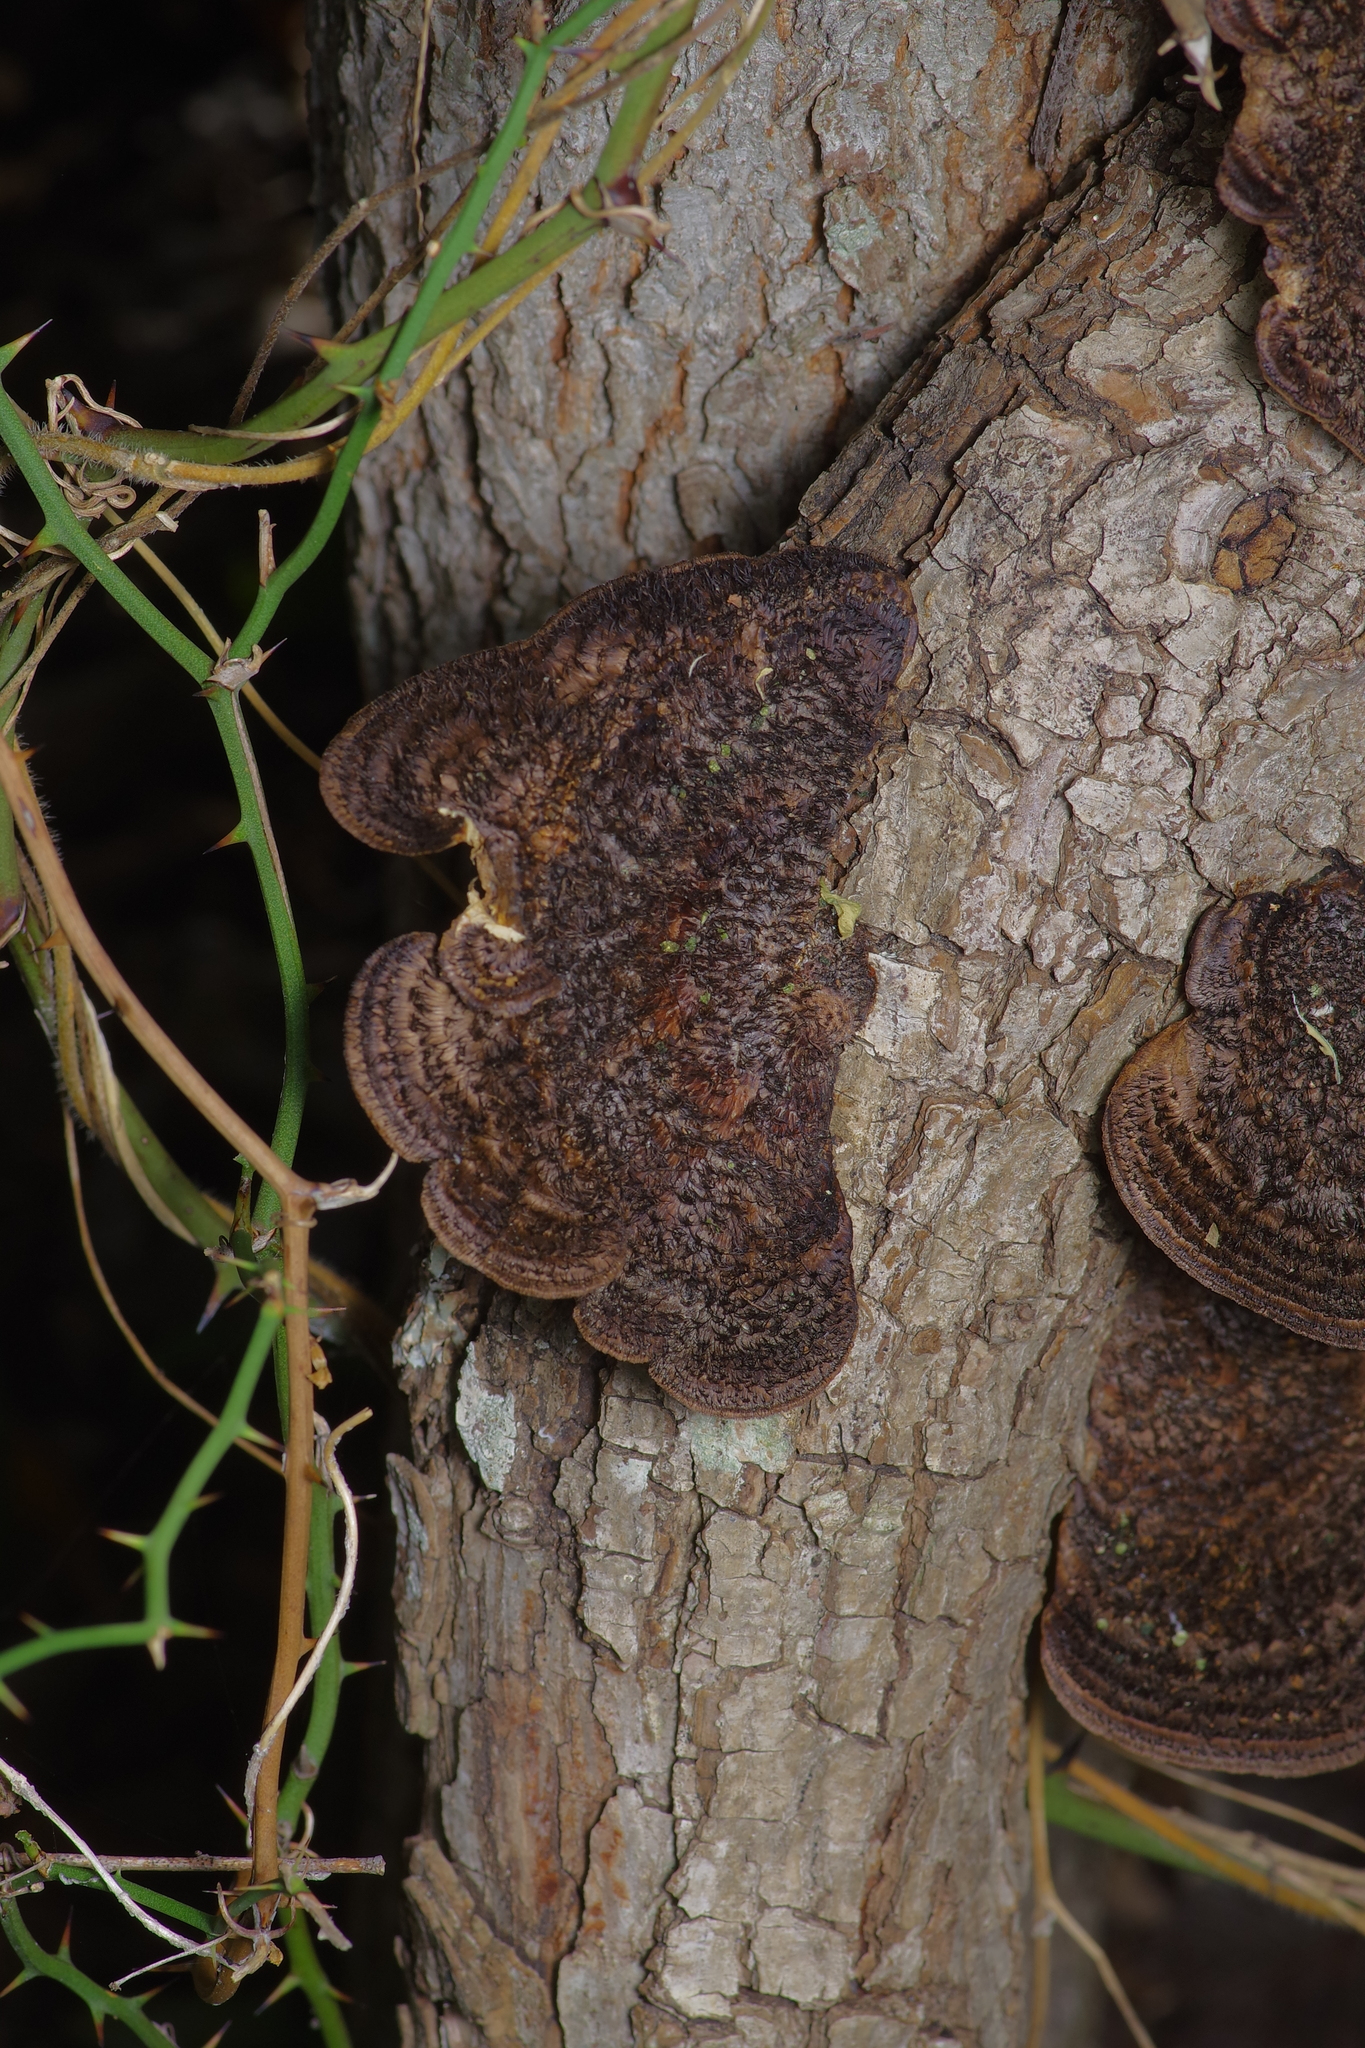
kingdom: Fungi
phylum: Basidiomycota
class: Agaricomycetes
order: Polyporales
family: Cerrenaceae
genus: Cerrena
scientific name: Cerrena hydnoides
